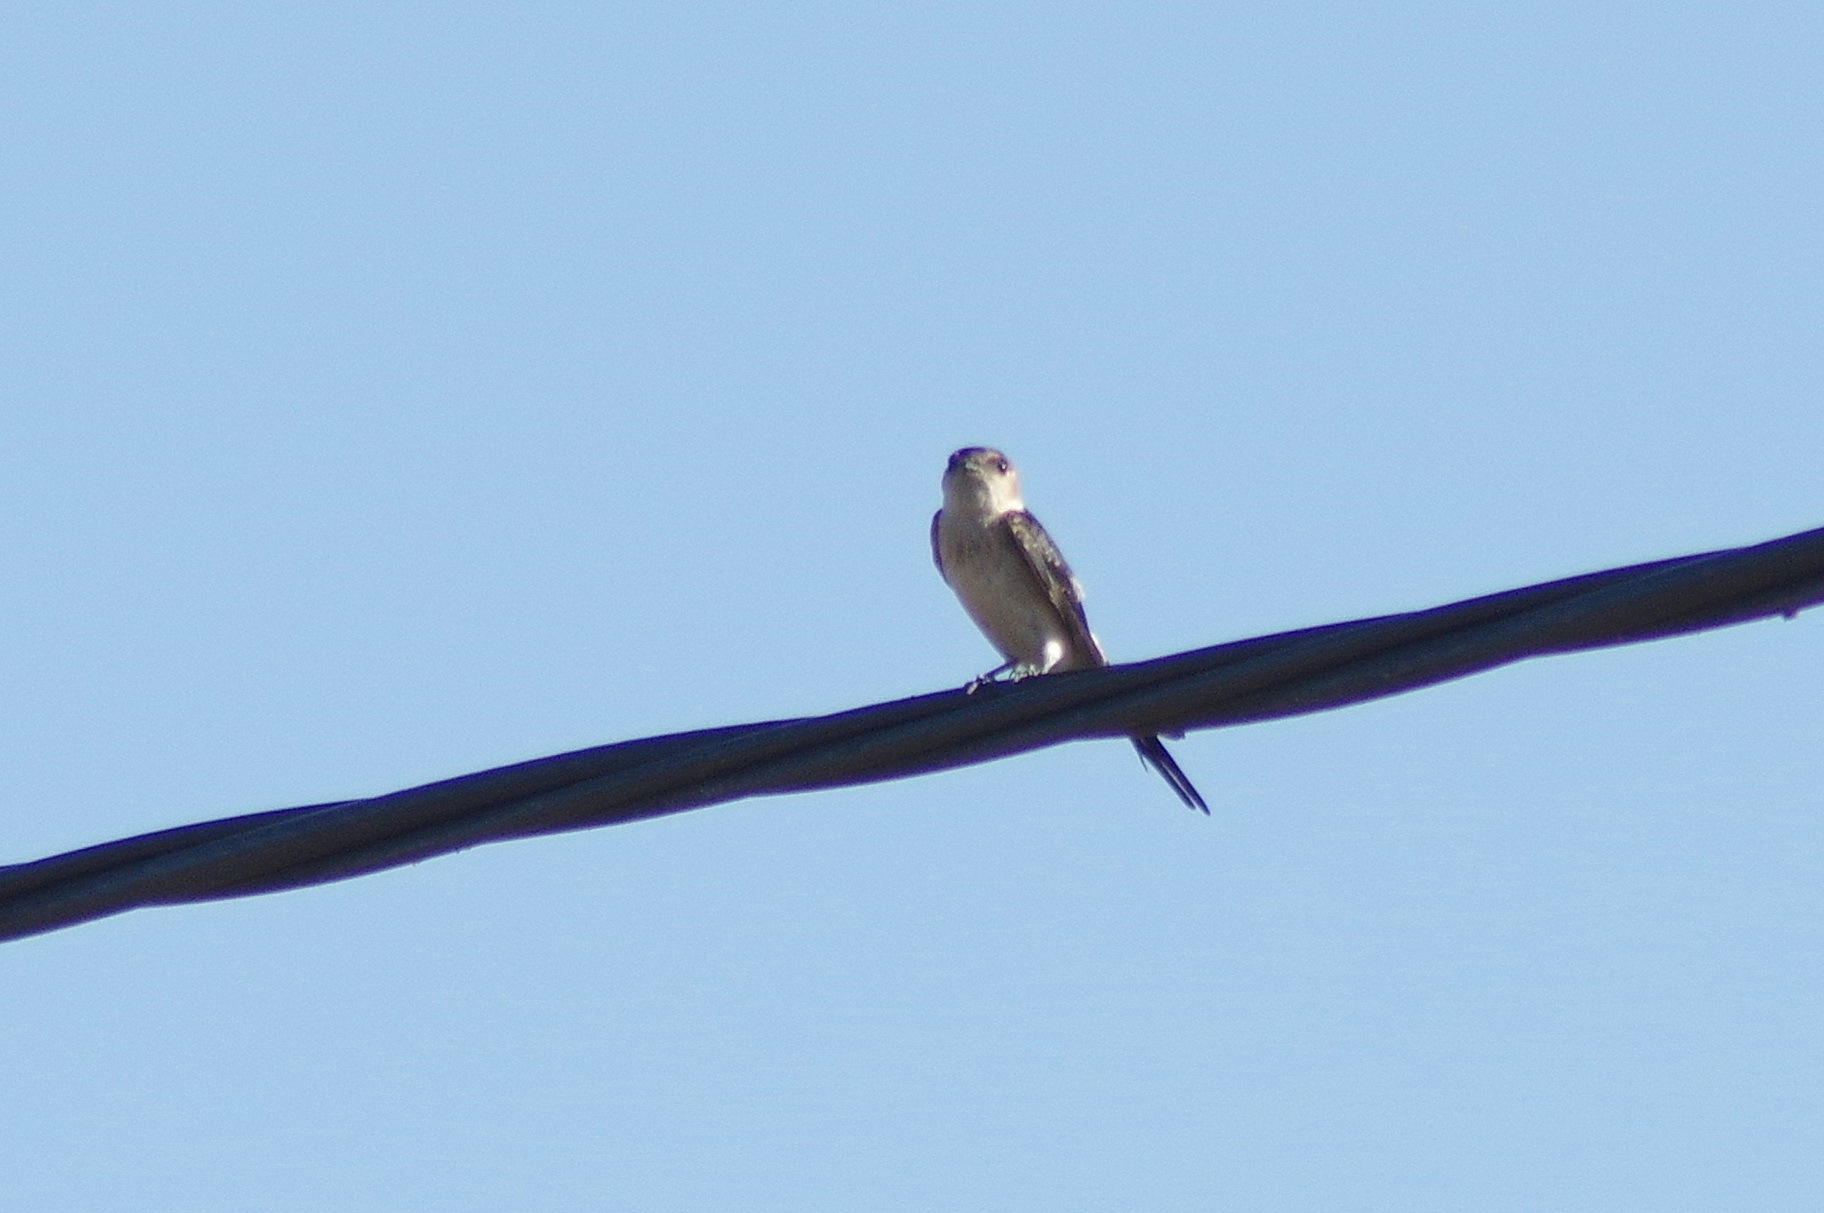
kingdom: Animalia
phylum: Chordata
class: Aves
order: Passeriformes
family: Hirundinidae
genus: Cecropis
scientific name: Cecropis daurica
